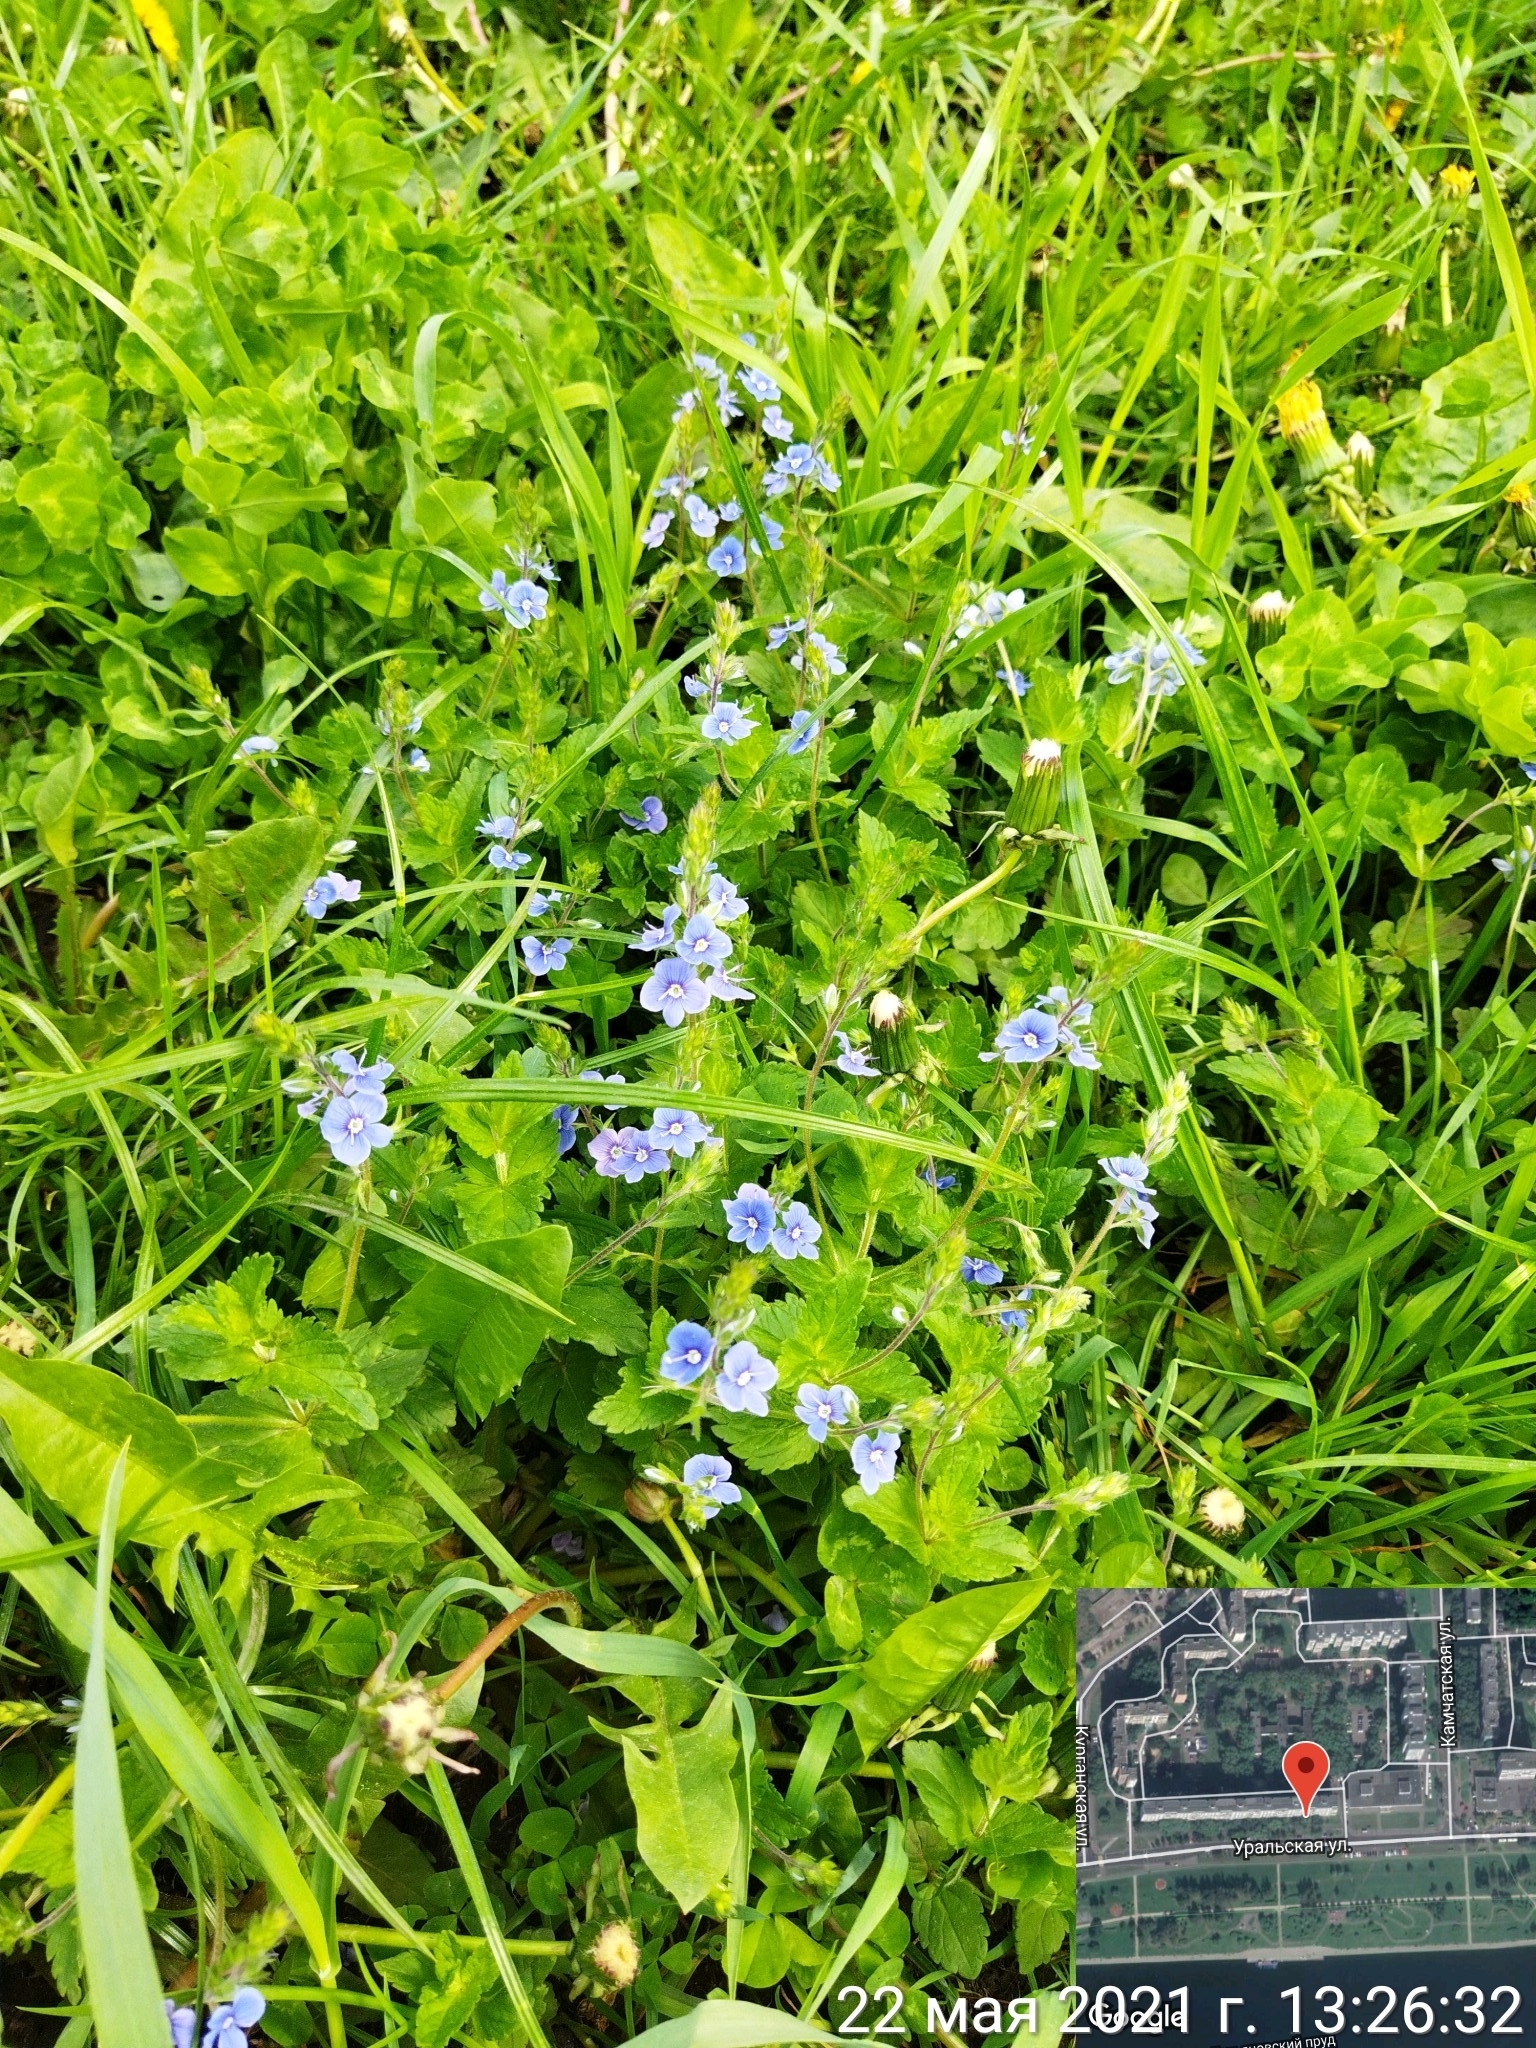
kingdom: Plantae
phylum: Tracheophyta
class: Magnoliopsida
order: Lamiales
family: Plantaginaceae
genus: Veronica
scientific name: Veronica chamaedrys
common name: Germander speedwell
